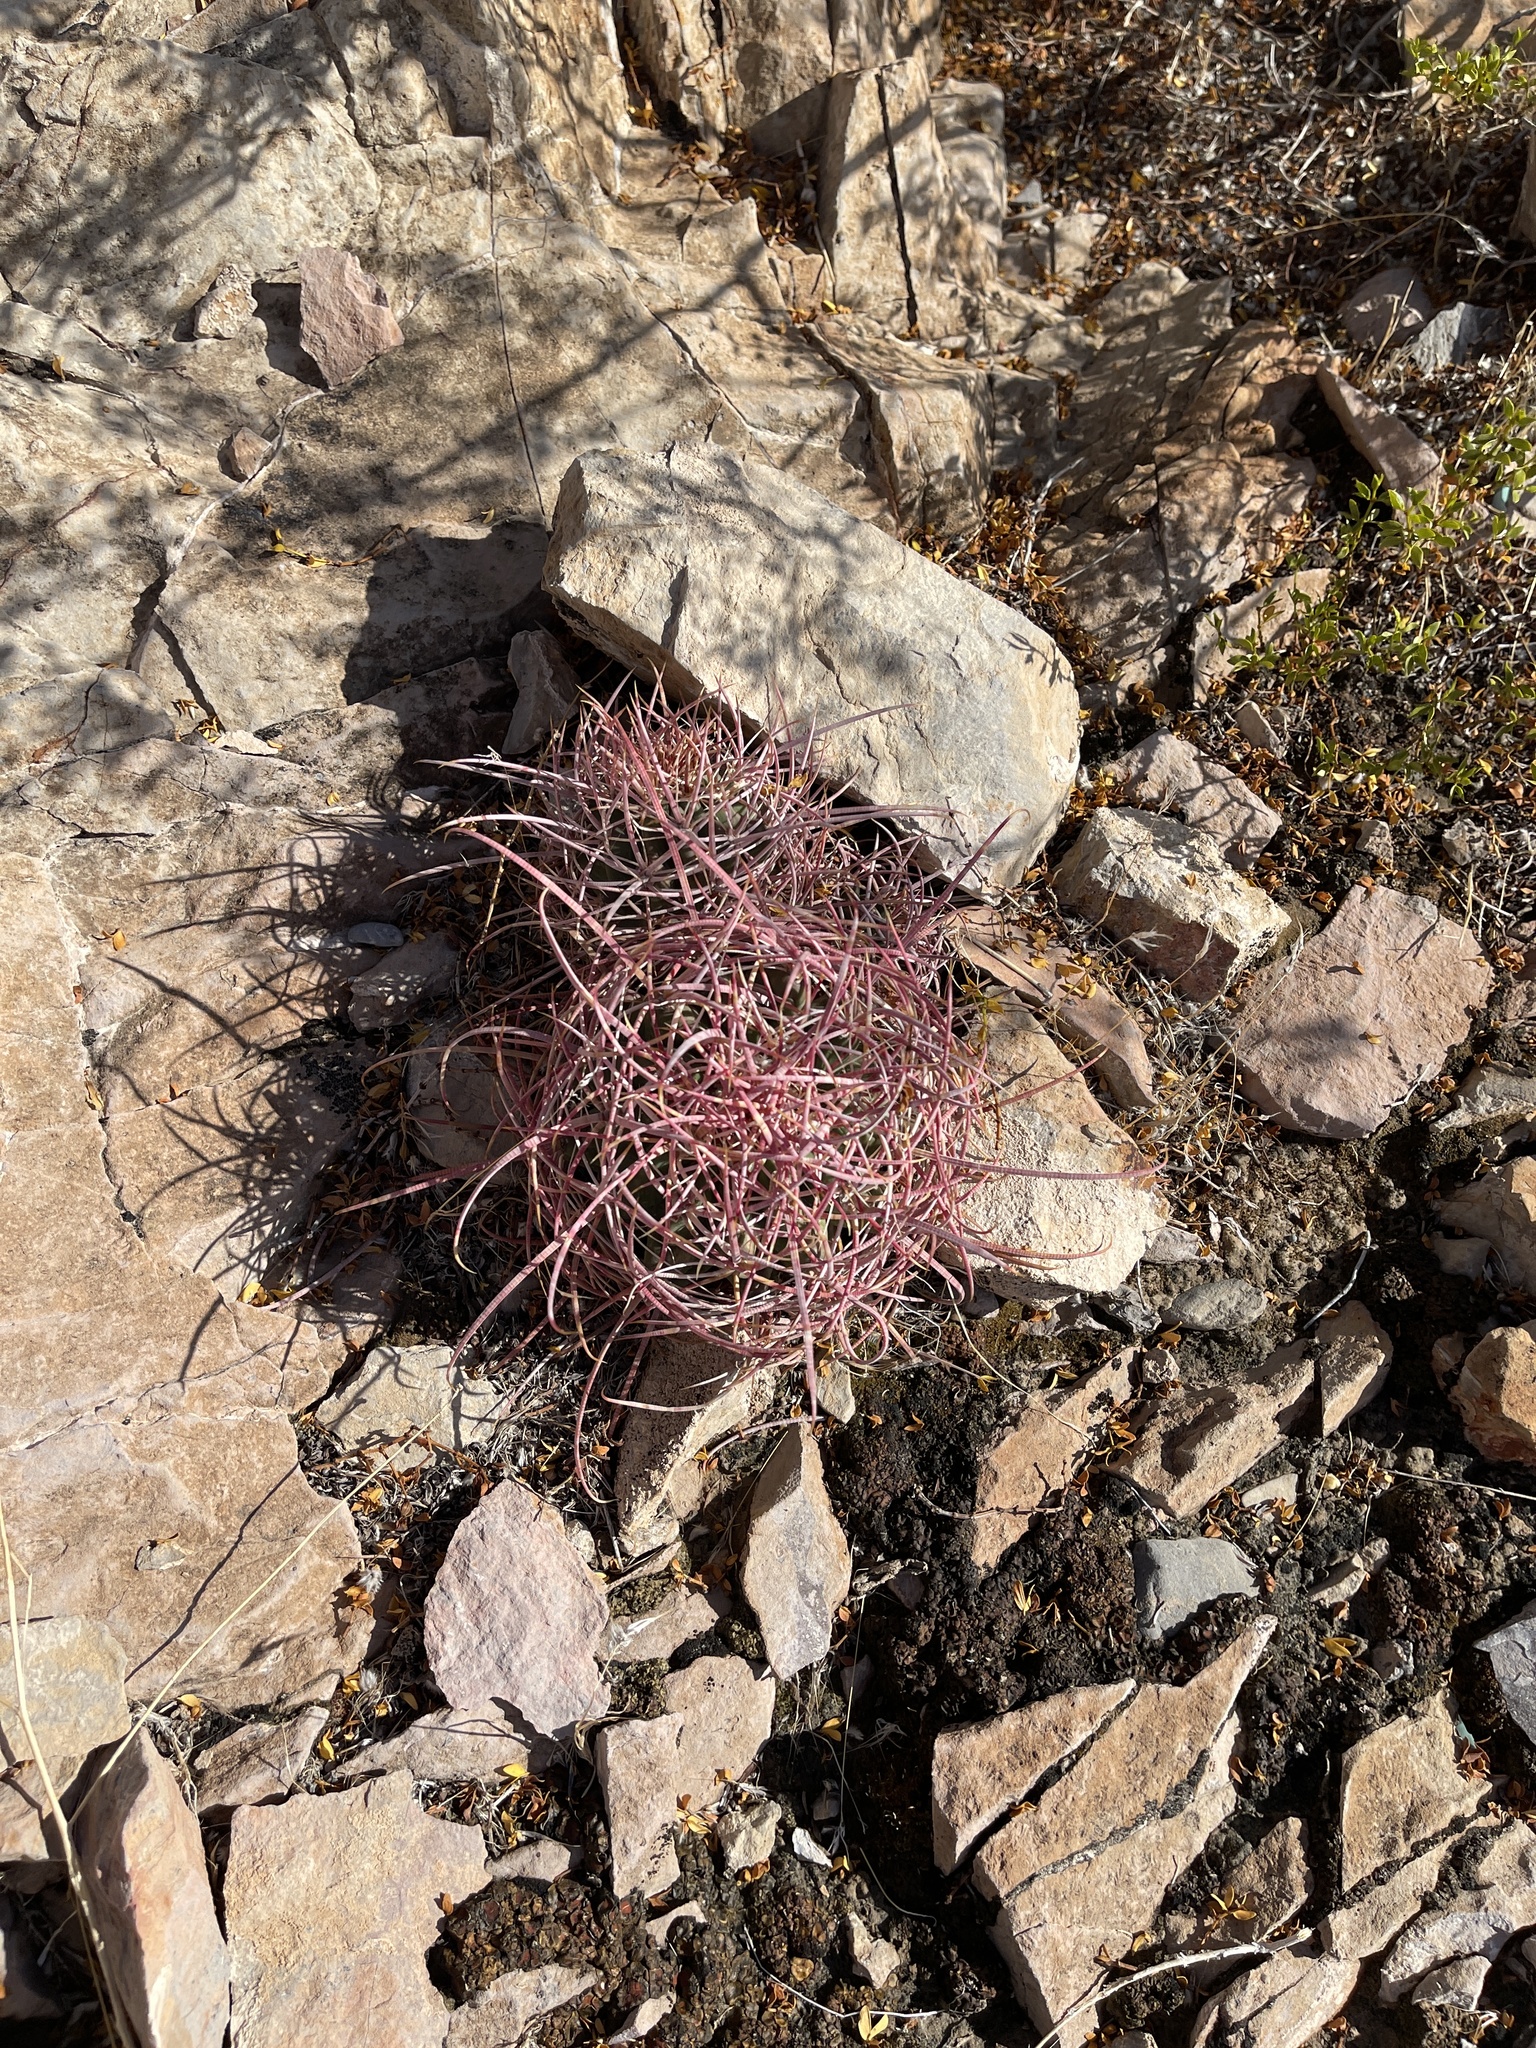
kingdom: Plantae
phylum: Tracheophyta
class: Magnoliopsida
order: Caryophyllales
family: Cactaceae
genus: Ferocactus
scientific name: Ferocactus cylindraceus
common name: California barrel cactus
